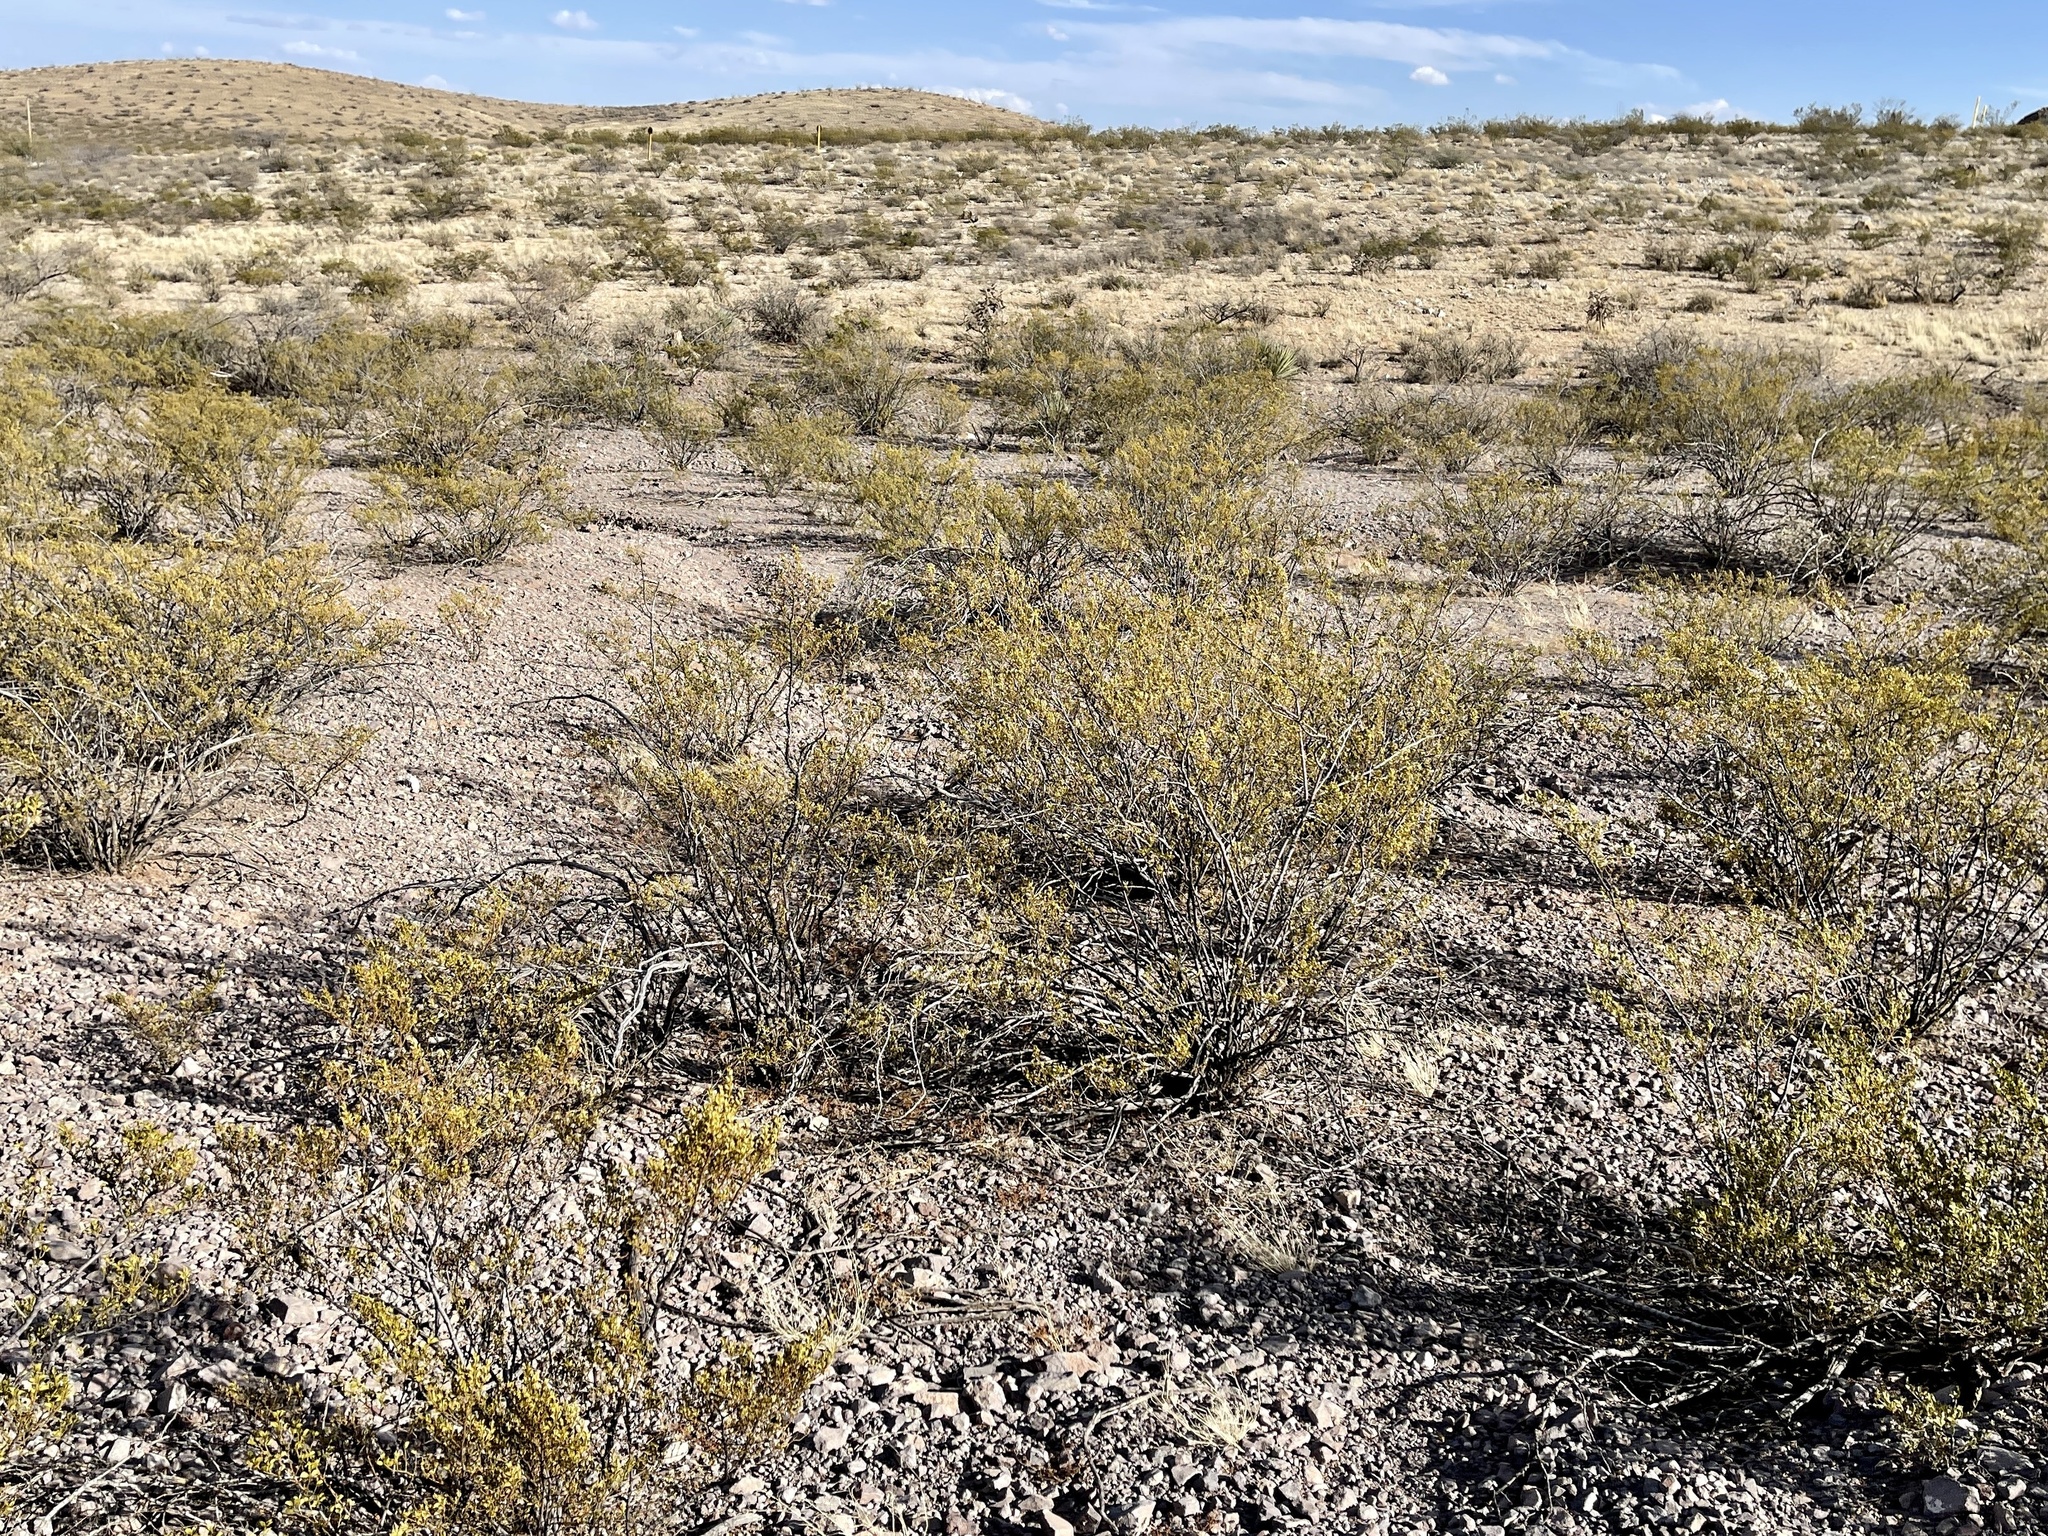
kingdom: Plantae
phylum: Tracheophyta
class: Magnoliopsida
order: Zygophyllales
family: Zygophyllaceae
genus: Larrea
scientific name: Larrea tridentata
